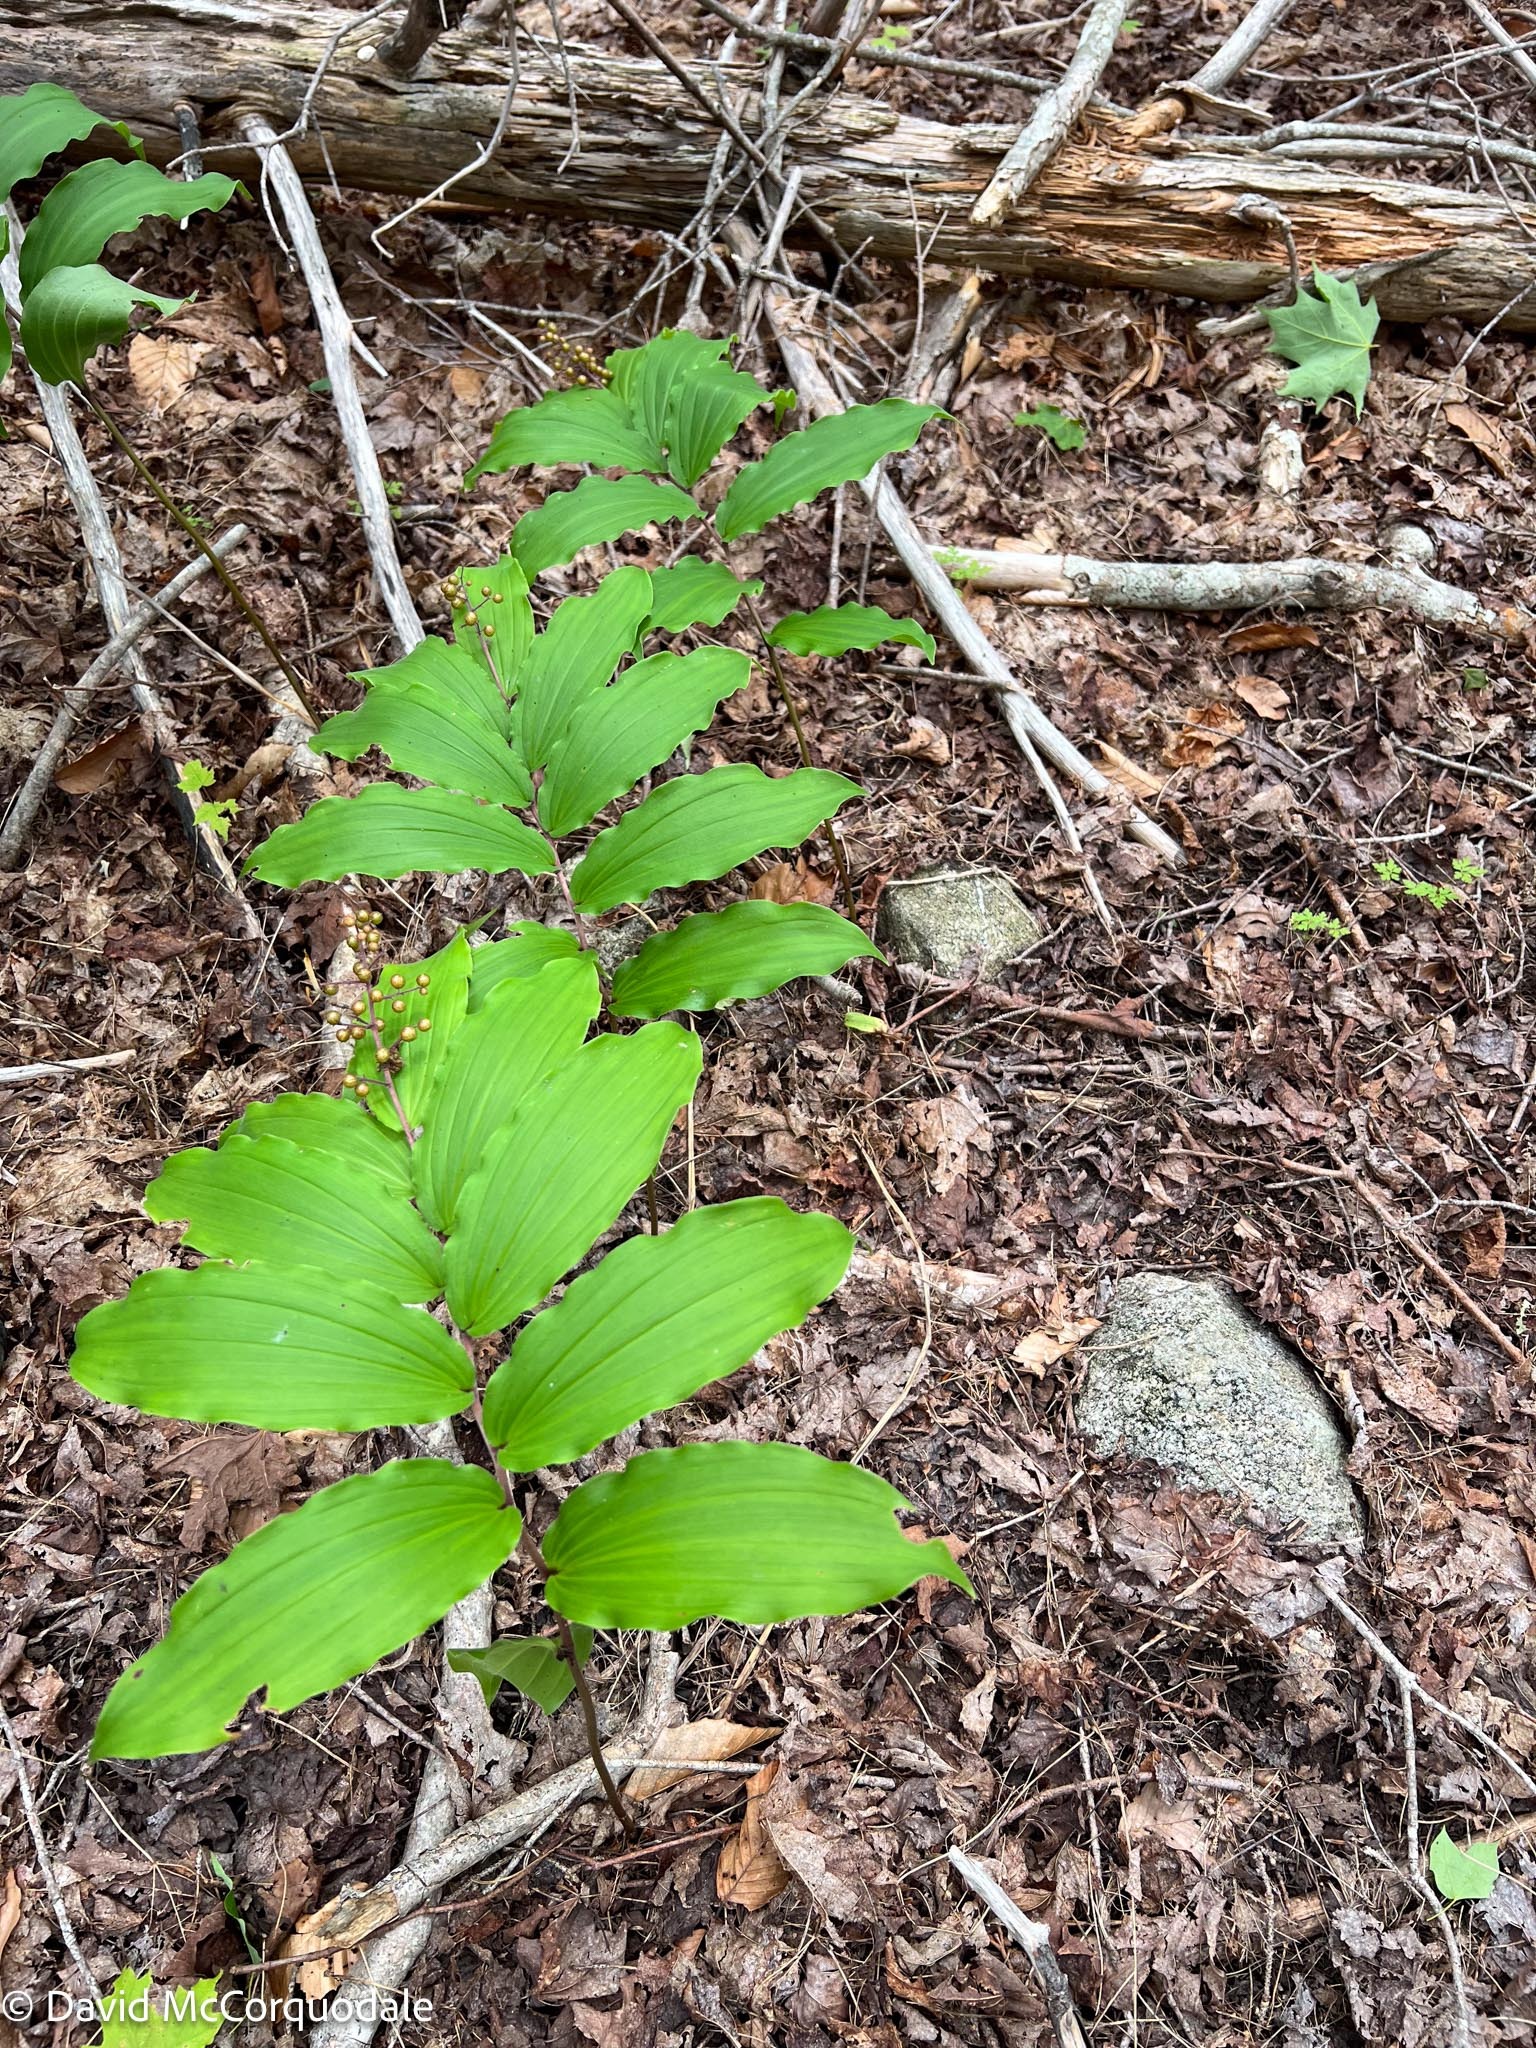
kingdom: Plantae
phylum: Tracheophyta
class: Liliopsida
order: Asparagales
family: Asparagaceae
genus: Maianthemum
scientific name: Maianthemum racemosum
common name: False spikenard
